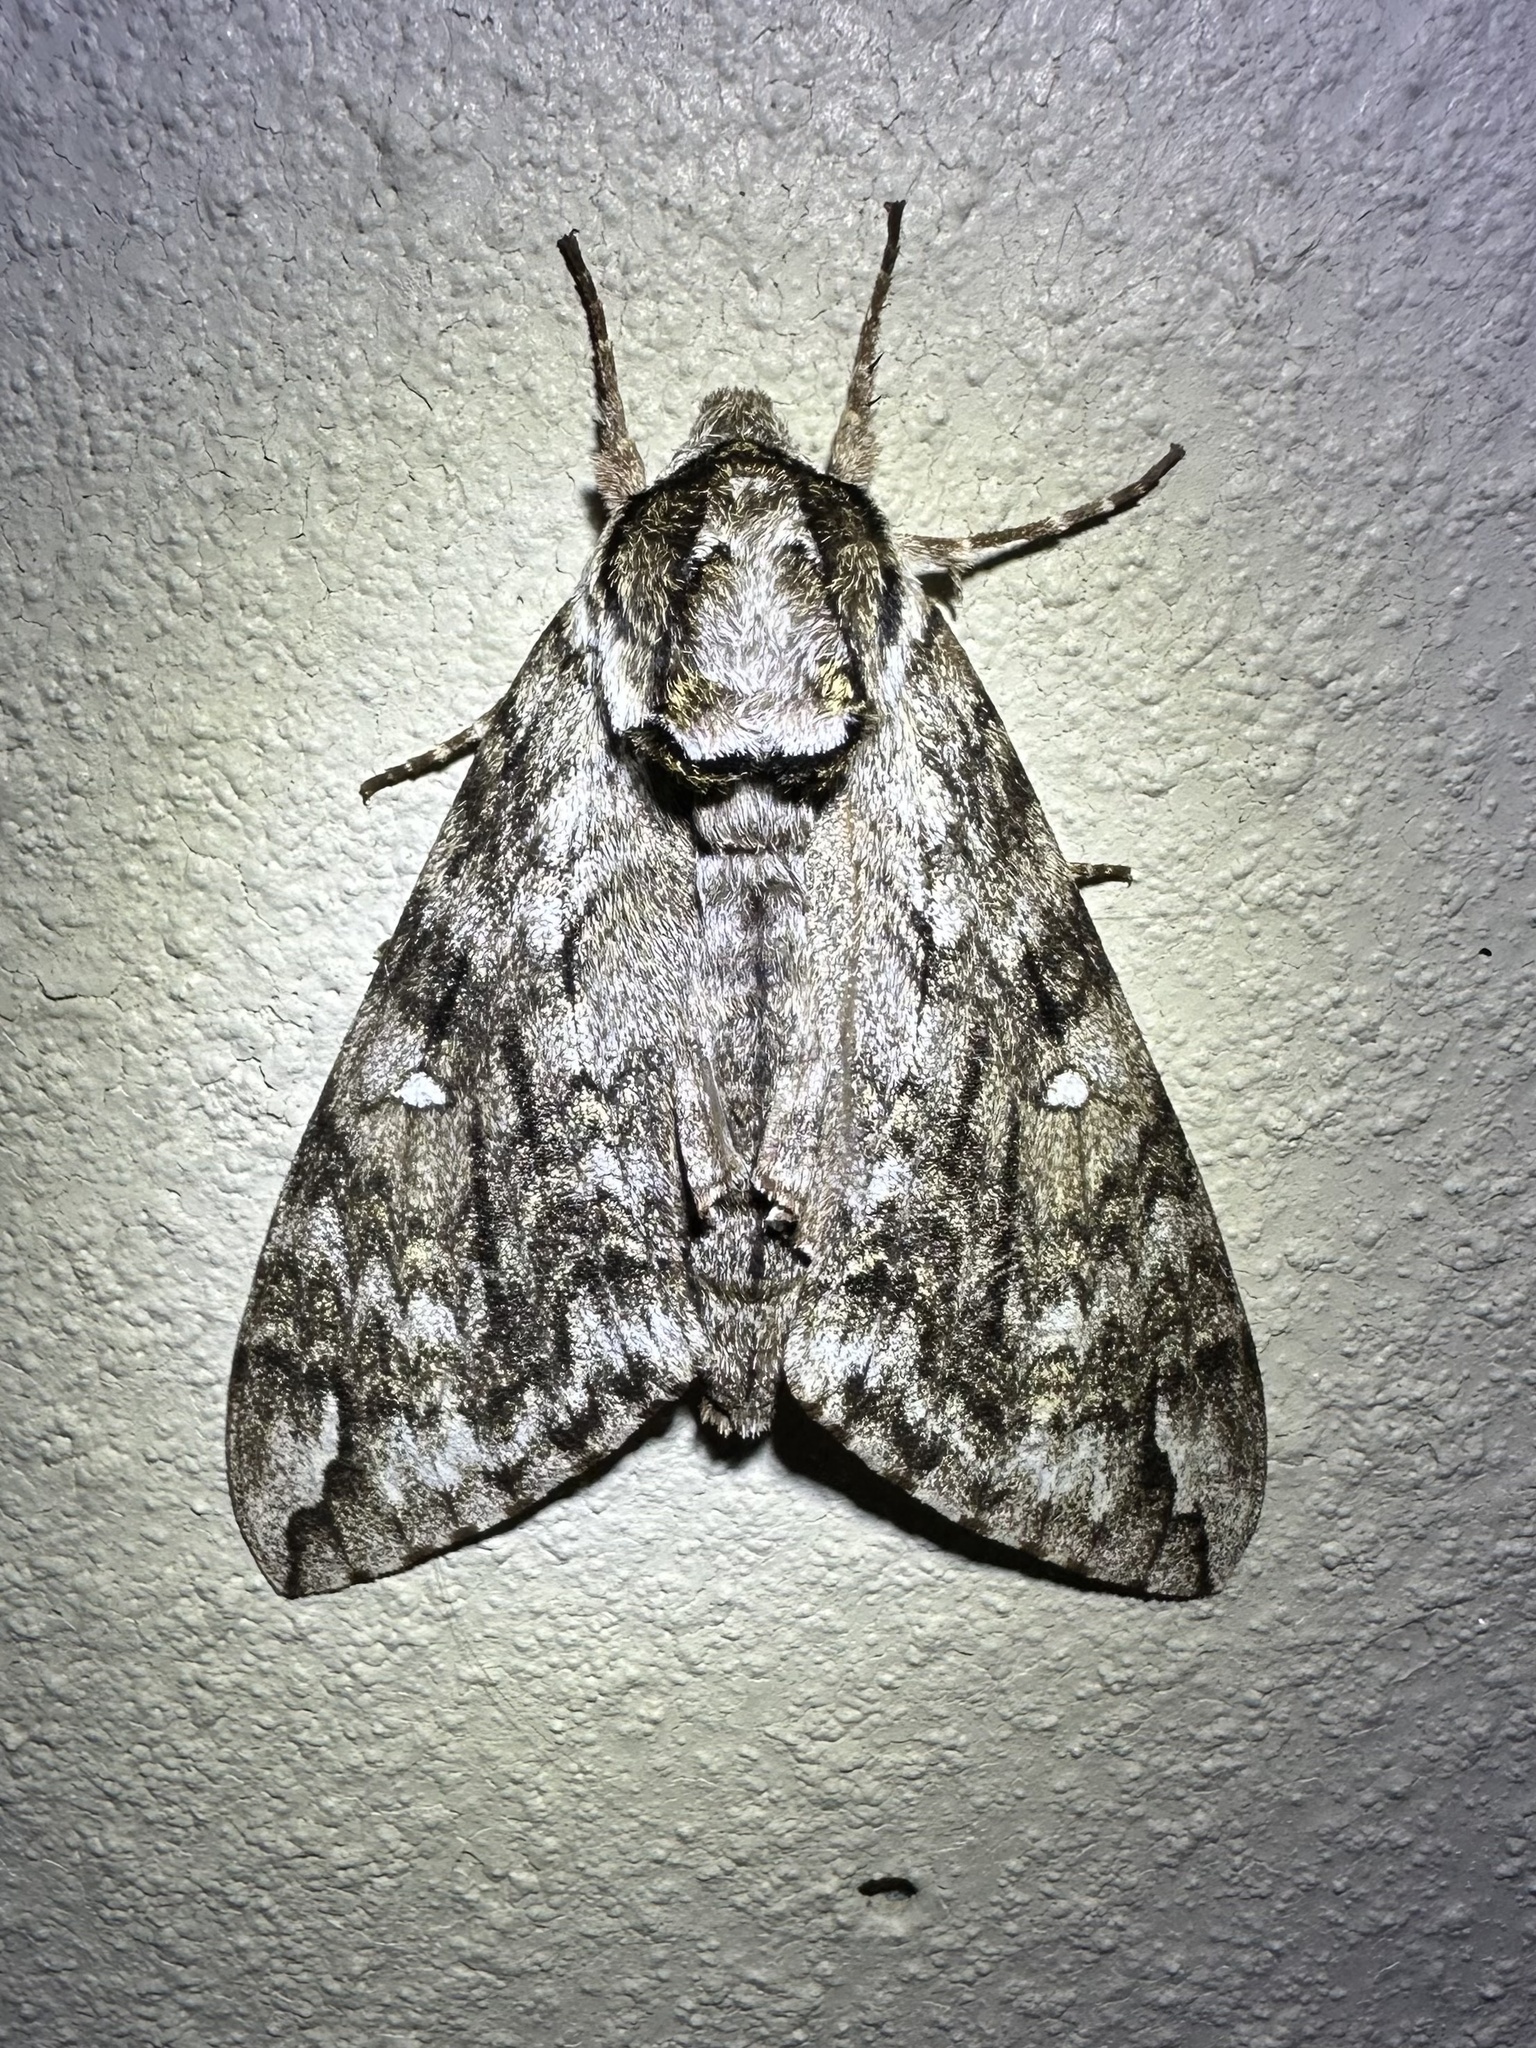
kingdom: Animalia
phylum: Arthropoda
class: Insecta
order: Lepidoptera
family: Sphingidae
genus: Ceratomia
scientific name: Ceratomia undulosa
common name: Waved sphinx
